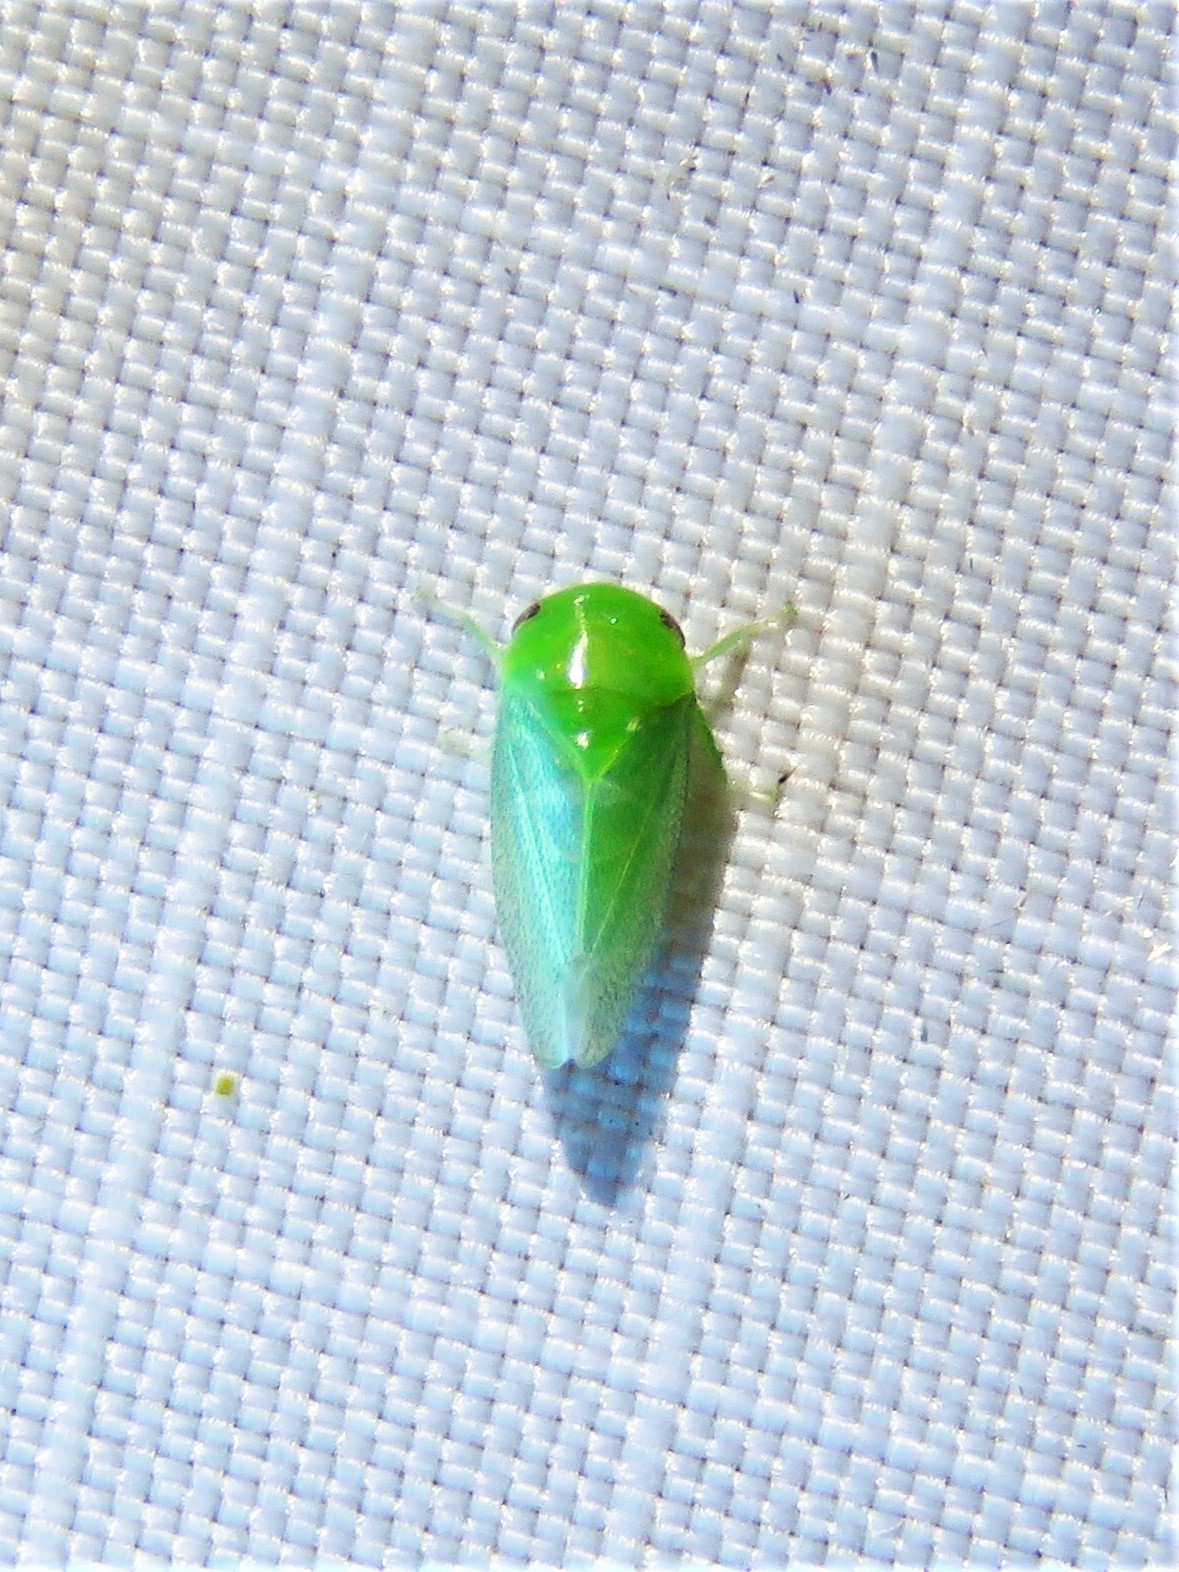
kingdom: Animalia
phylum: Arthropoda
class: Insecta
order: Hemiptera
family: Cicadellidae
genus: Penestragania
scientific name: Penestragania robusta
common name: Robust leafhopper
